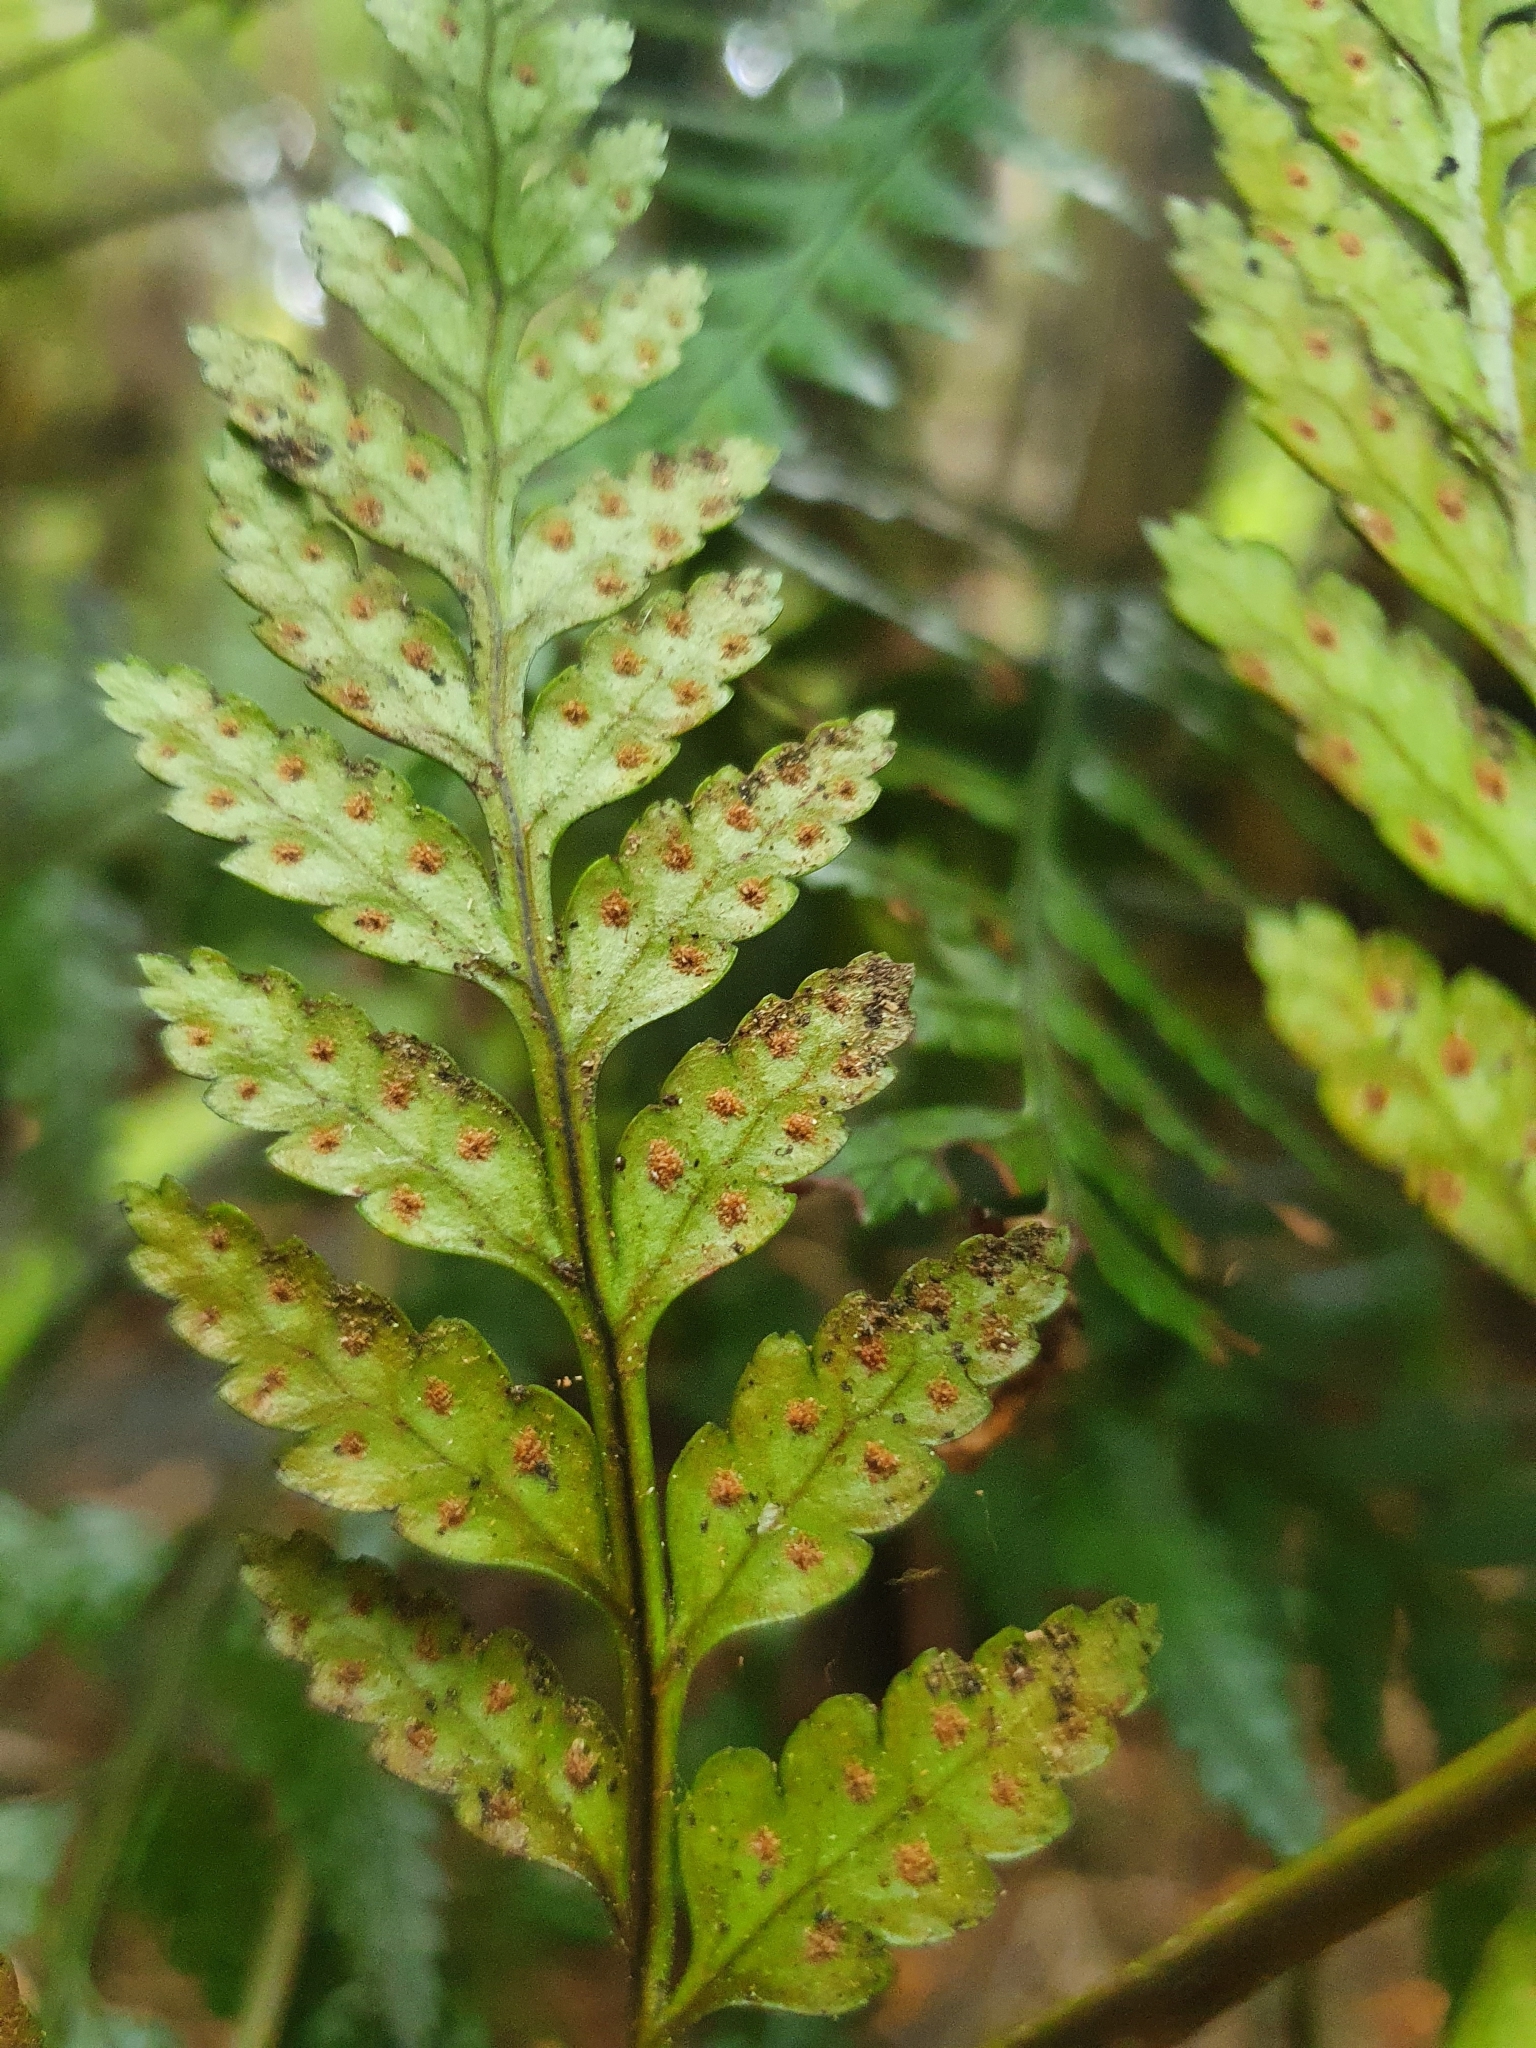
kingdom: Plantae
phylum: Tracheophyta
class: Polypodiopsida
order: Polypodiales
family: Dryopteridaceae
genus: Rumohra
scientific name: Rumohra adiantiformis
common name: Leather fern
